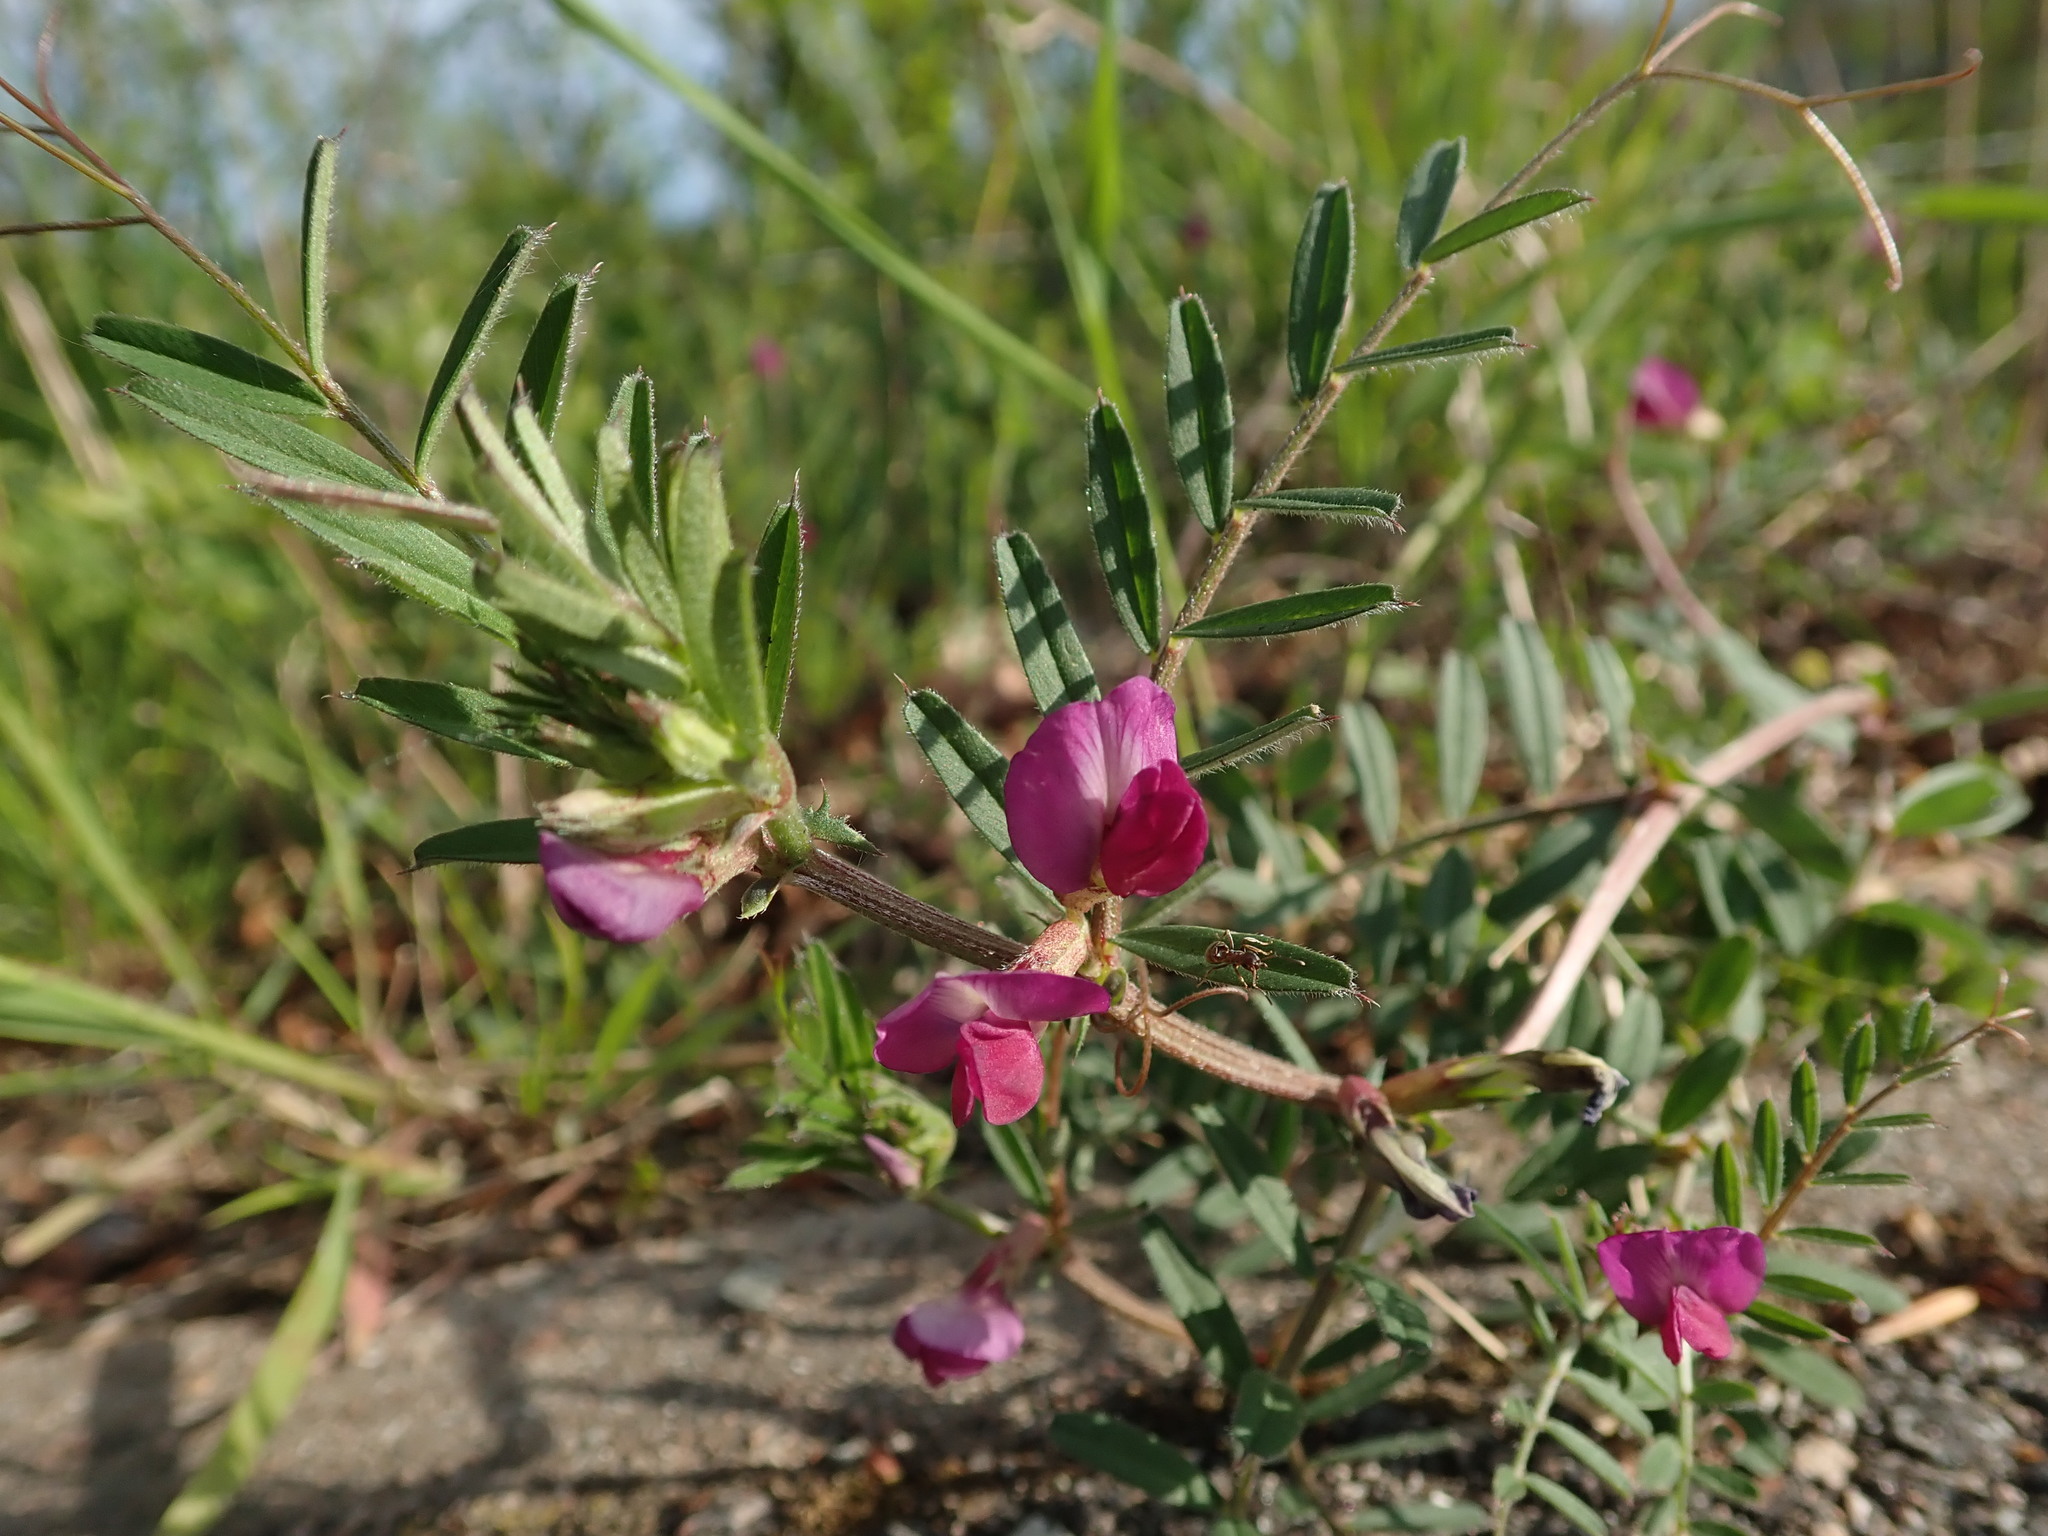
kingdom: Plantae
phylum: Tracheophyta
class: Magnoliopsida
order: Fabales
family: Fabaceae
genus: Vicia
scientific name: Vicia sativa
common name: Garden vetch
